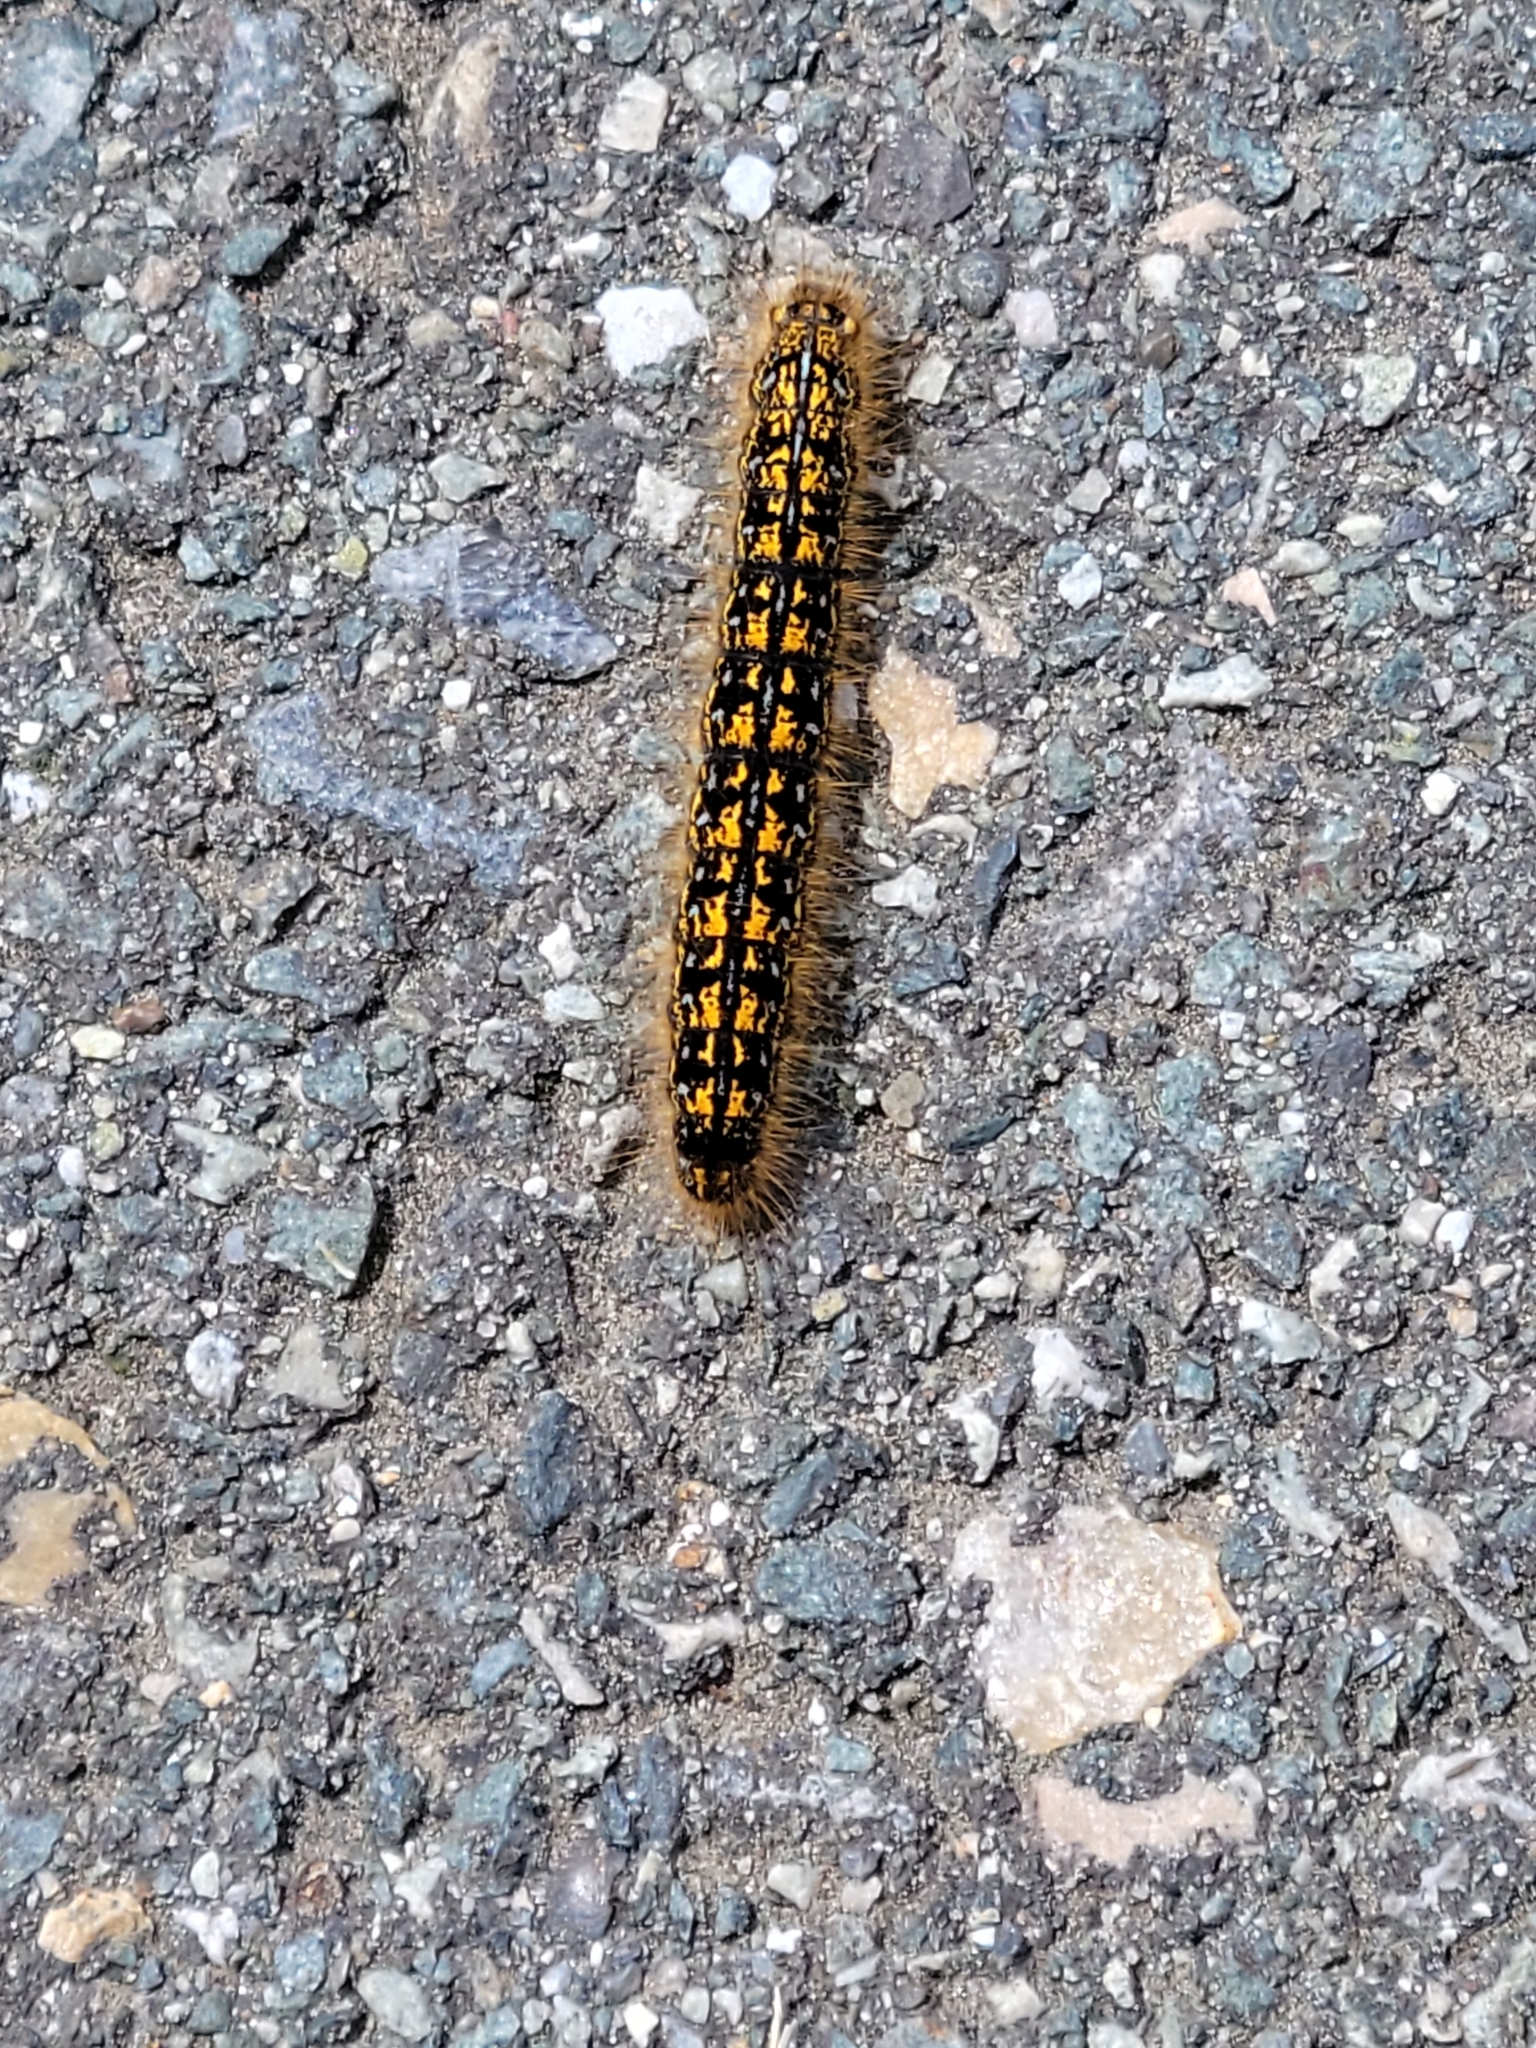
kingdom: Animalia
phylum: Arthropoda
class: Insecta
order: Lepidoptera
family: Lasiocampidae
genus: Malacosoma
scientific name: Malacosoma californica
